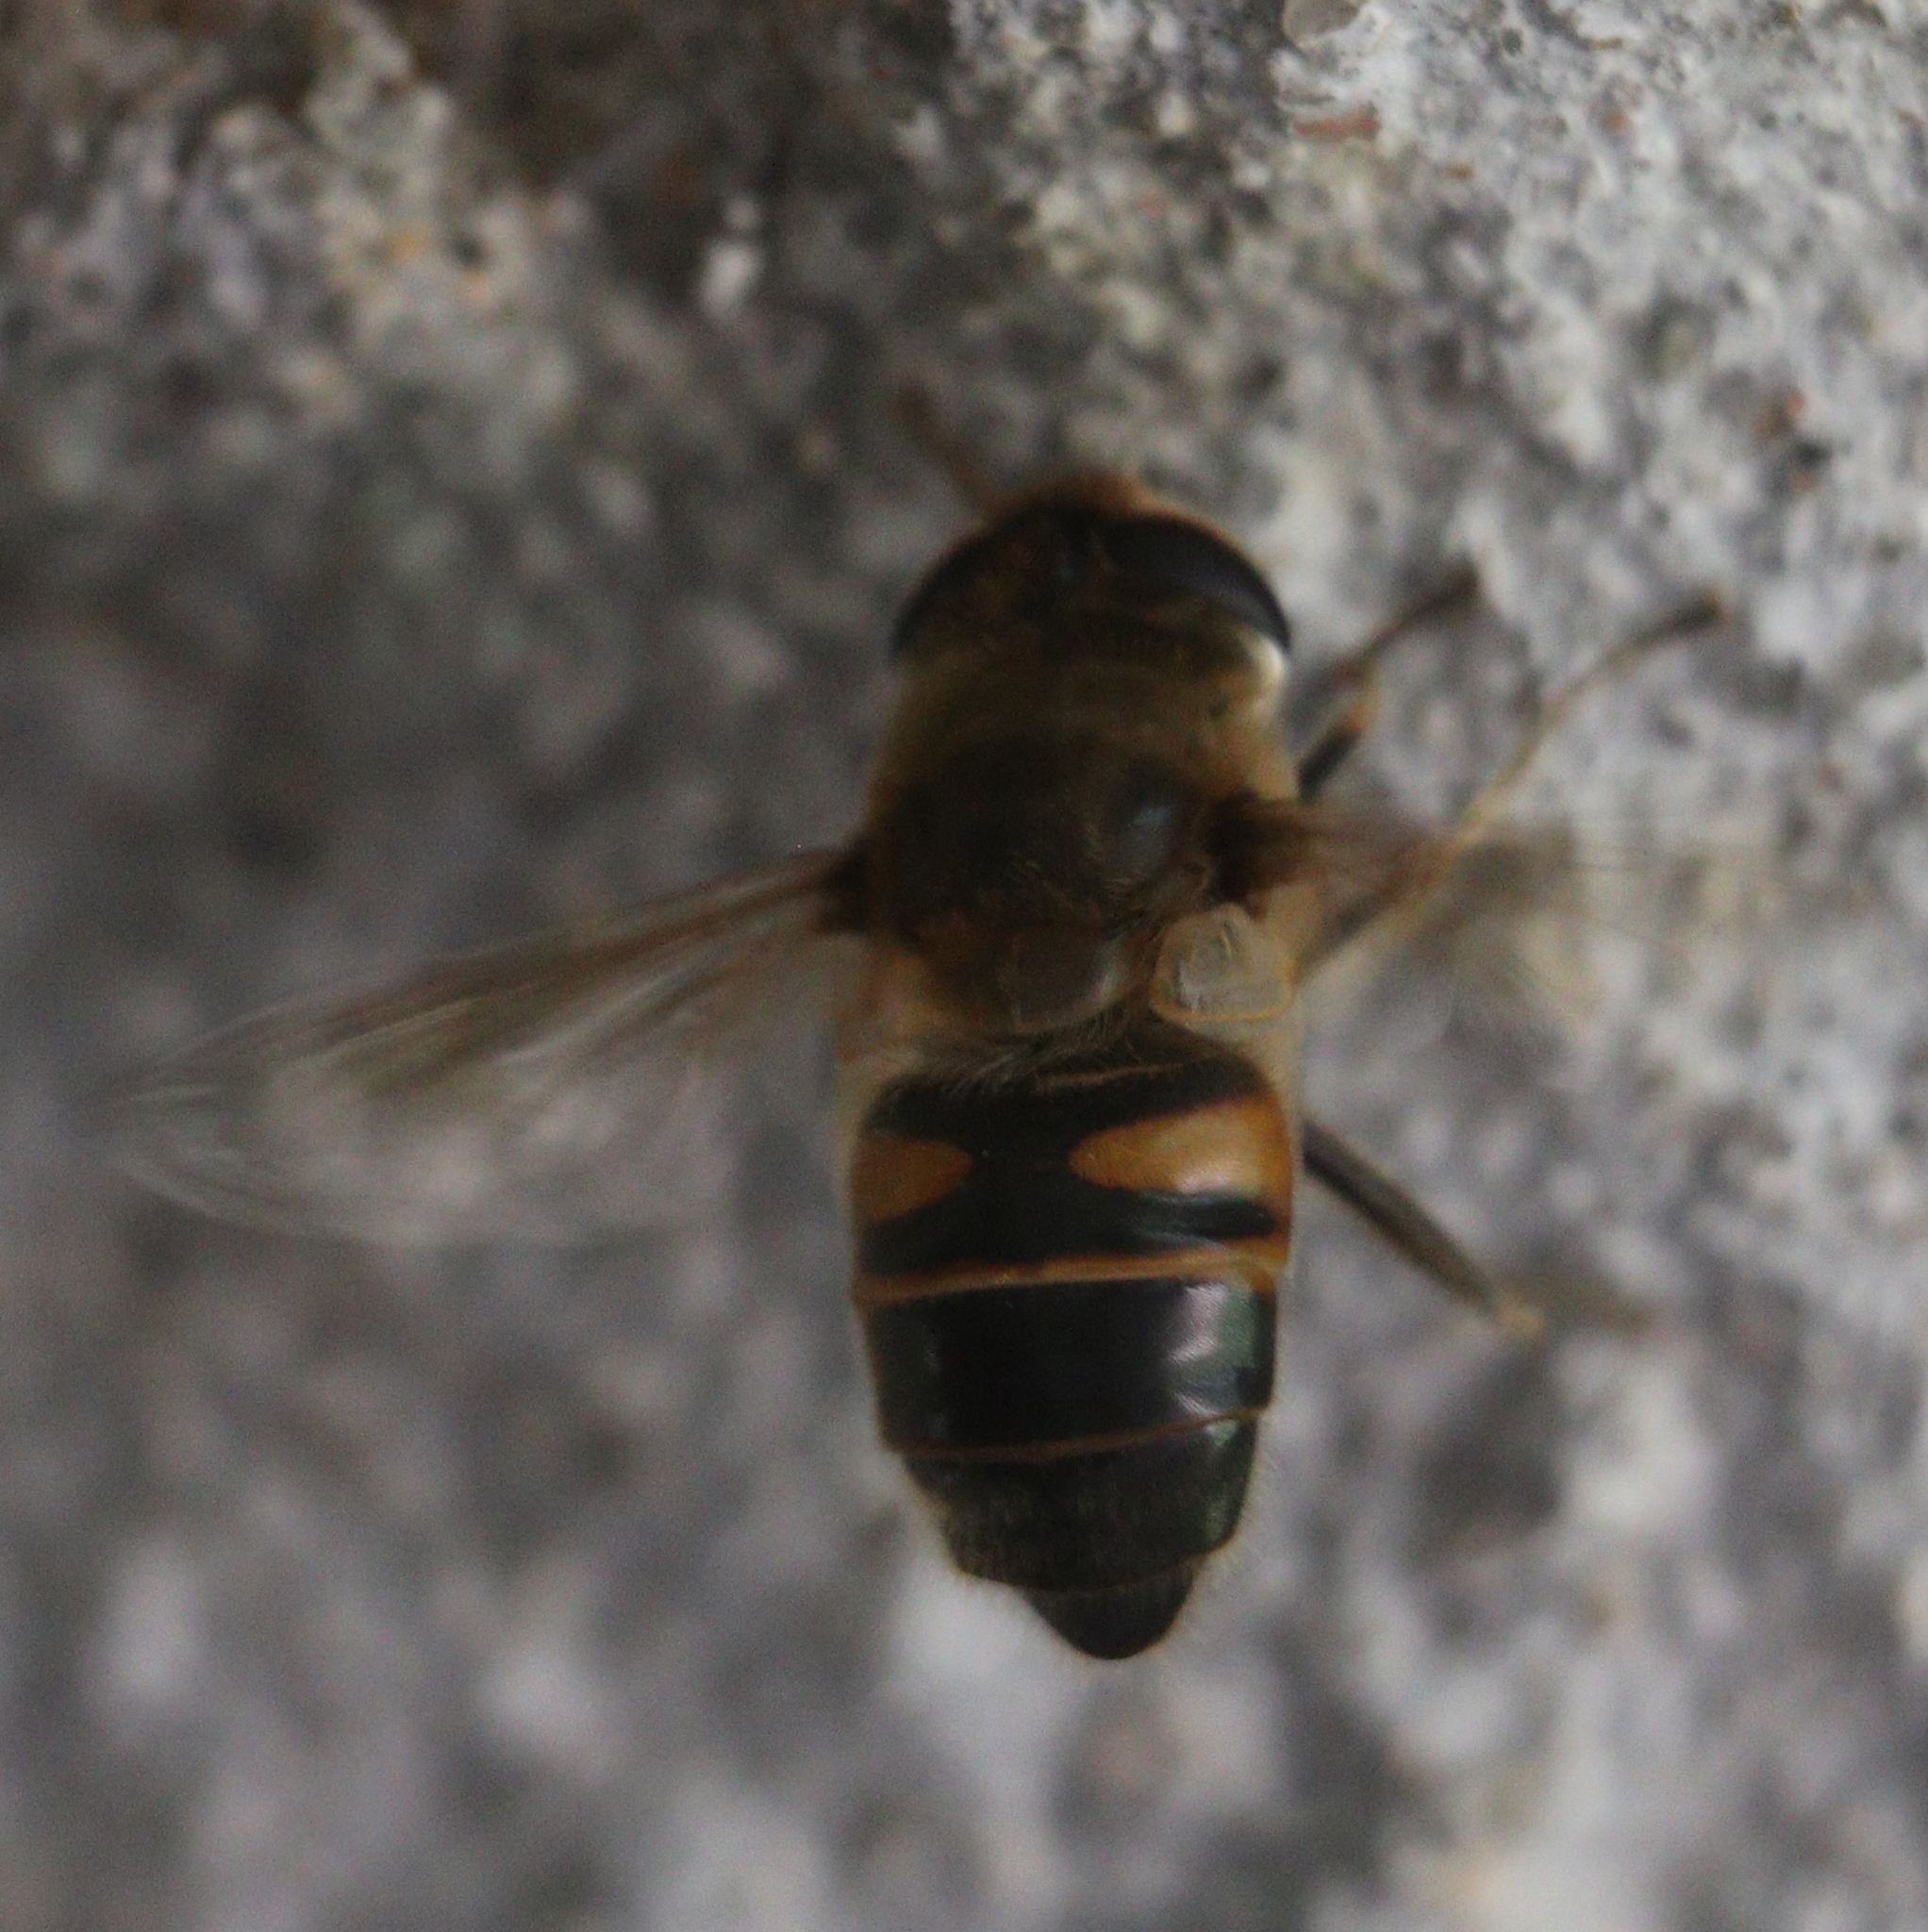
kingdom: Animalia
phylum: Arthropoda
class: Insecta
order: Diptera
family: Syrphidae
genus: Eristalis
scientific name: Eristalis tenax
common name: Drone fly
